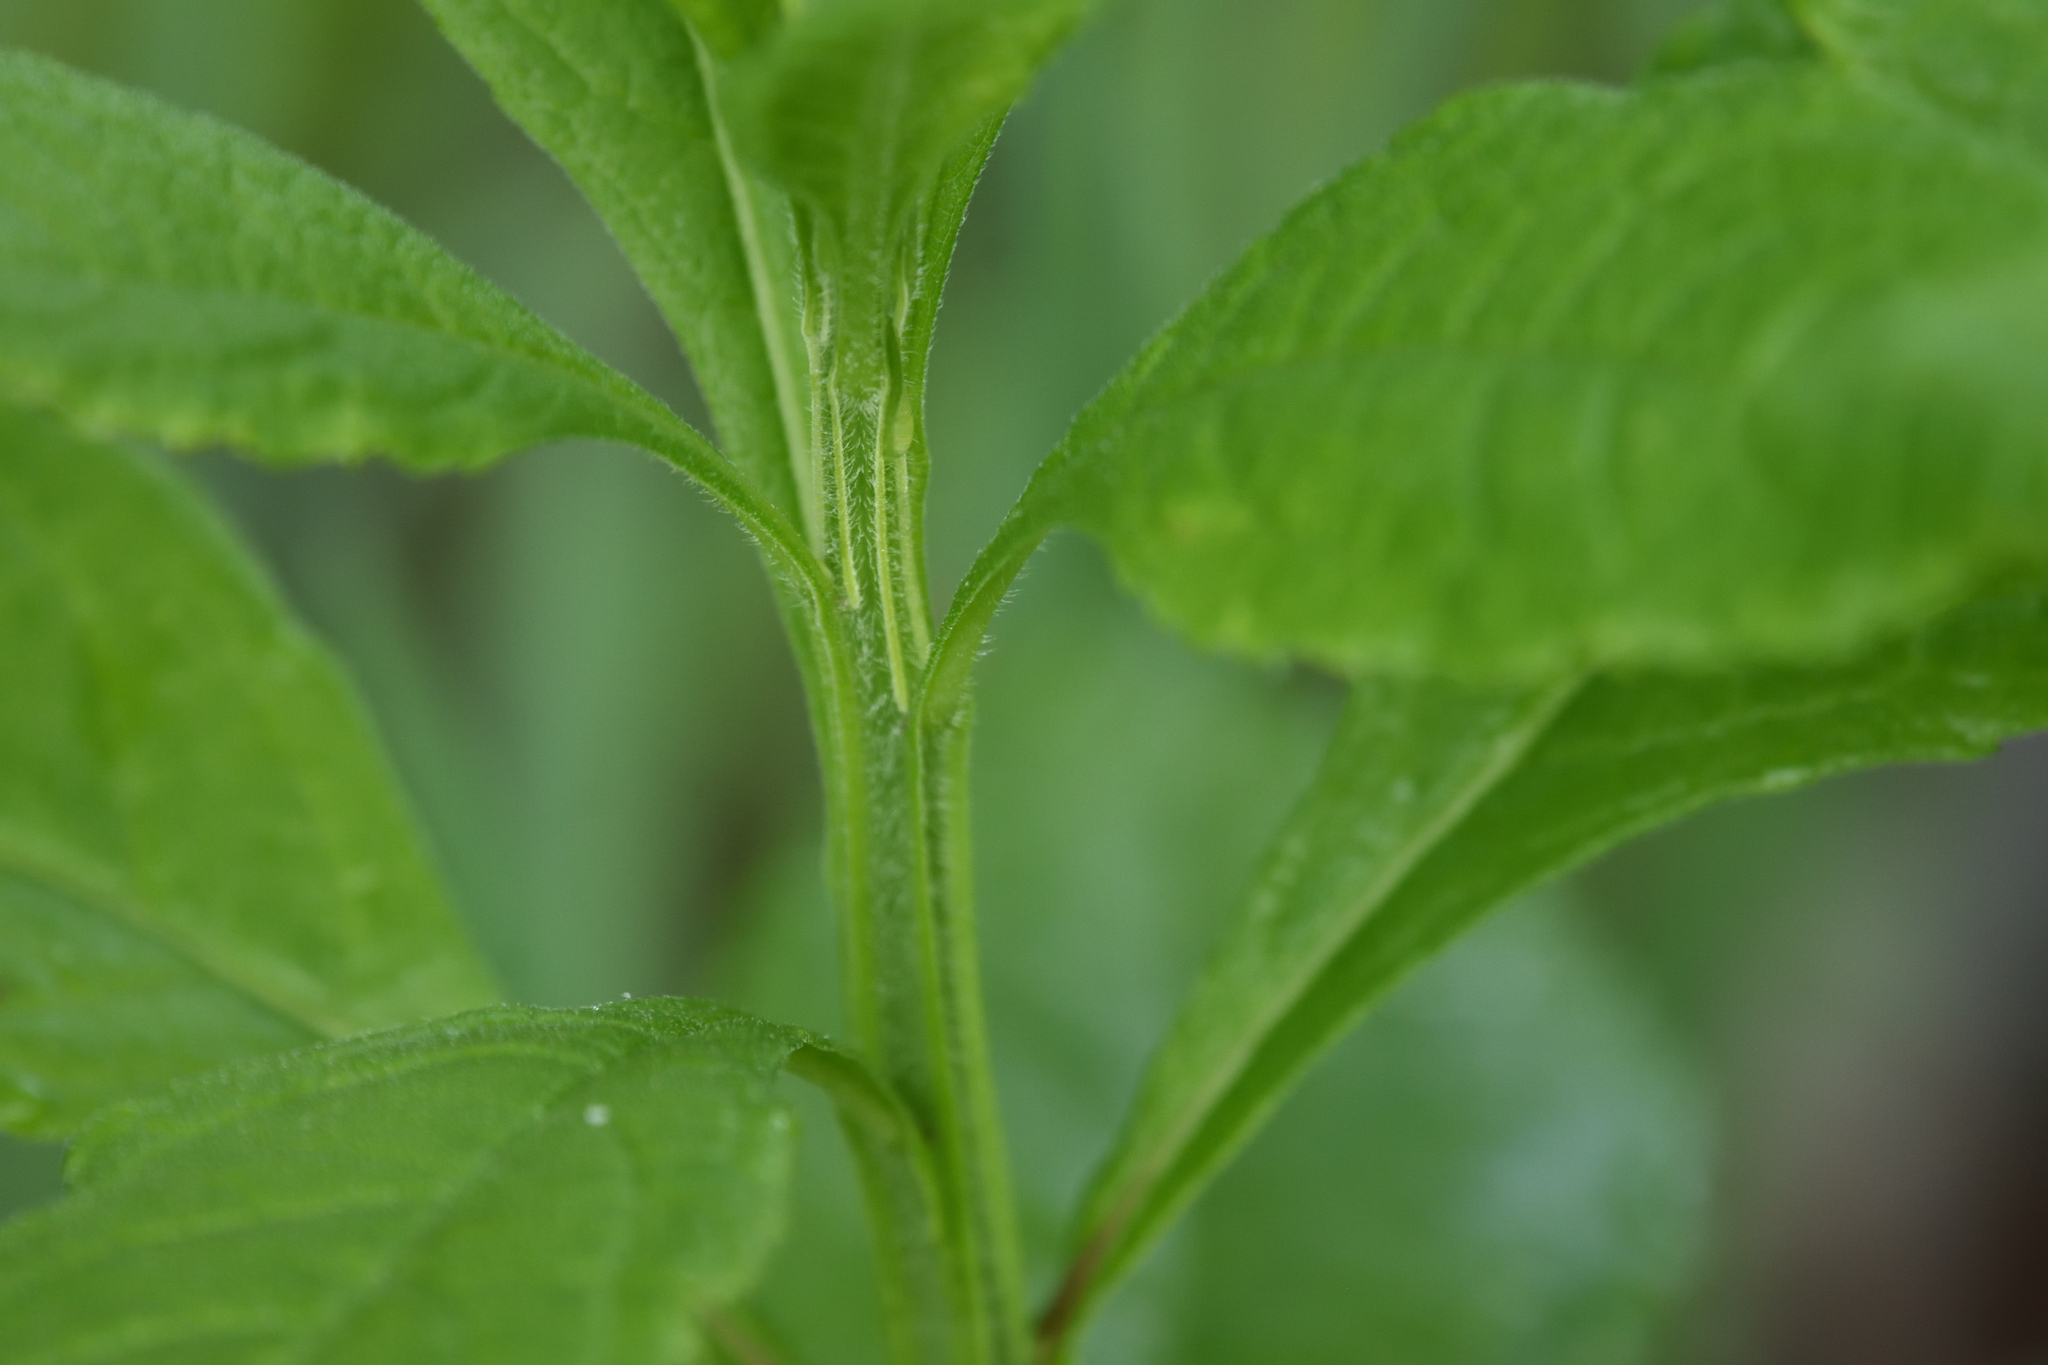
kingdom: Plantae
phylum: Tracheophyta
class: Magnoliopsida
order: Asterales
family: Asteraceae
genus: Verbesina
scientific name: Verbesina alternifolia
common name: Wingstem
